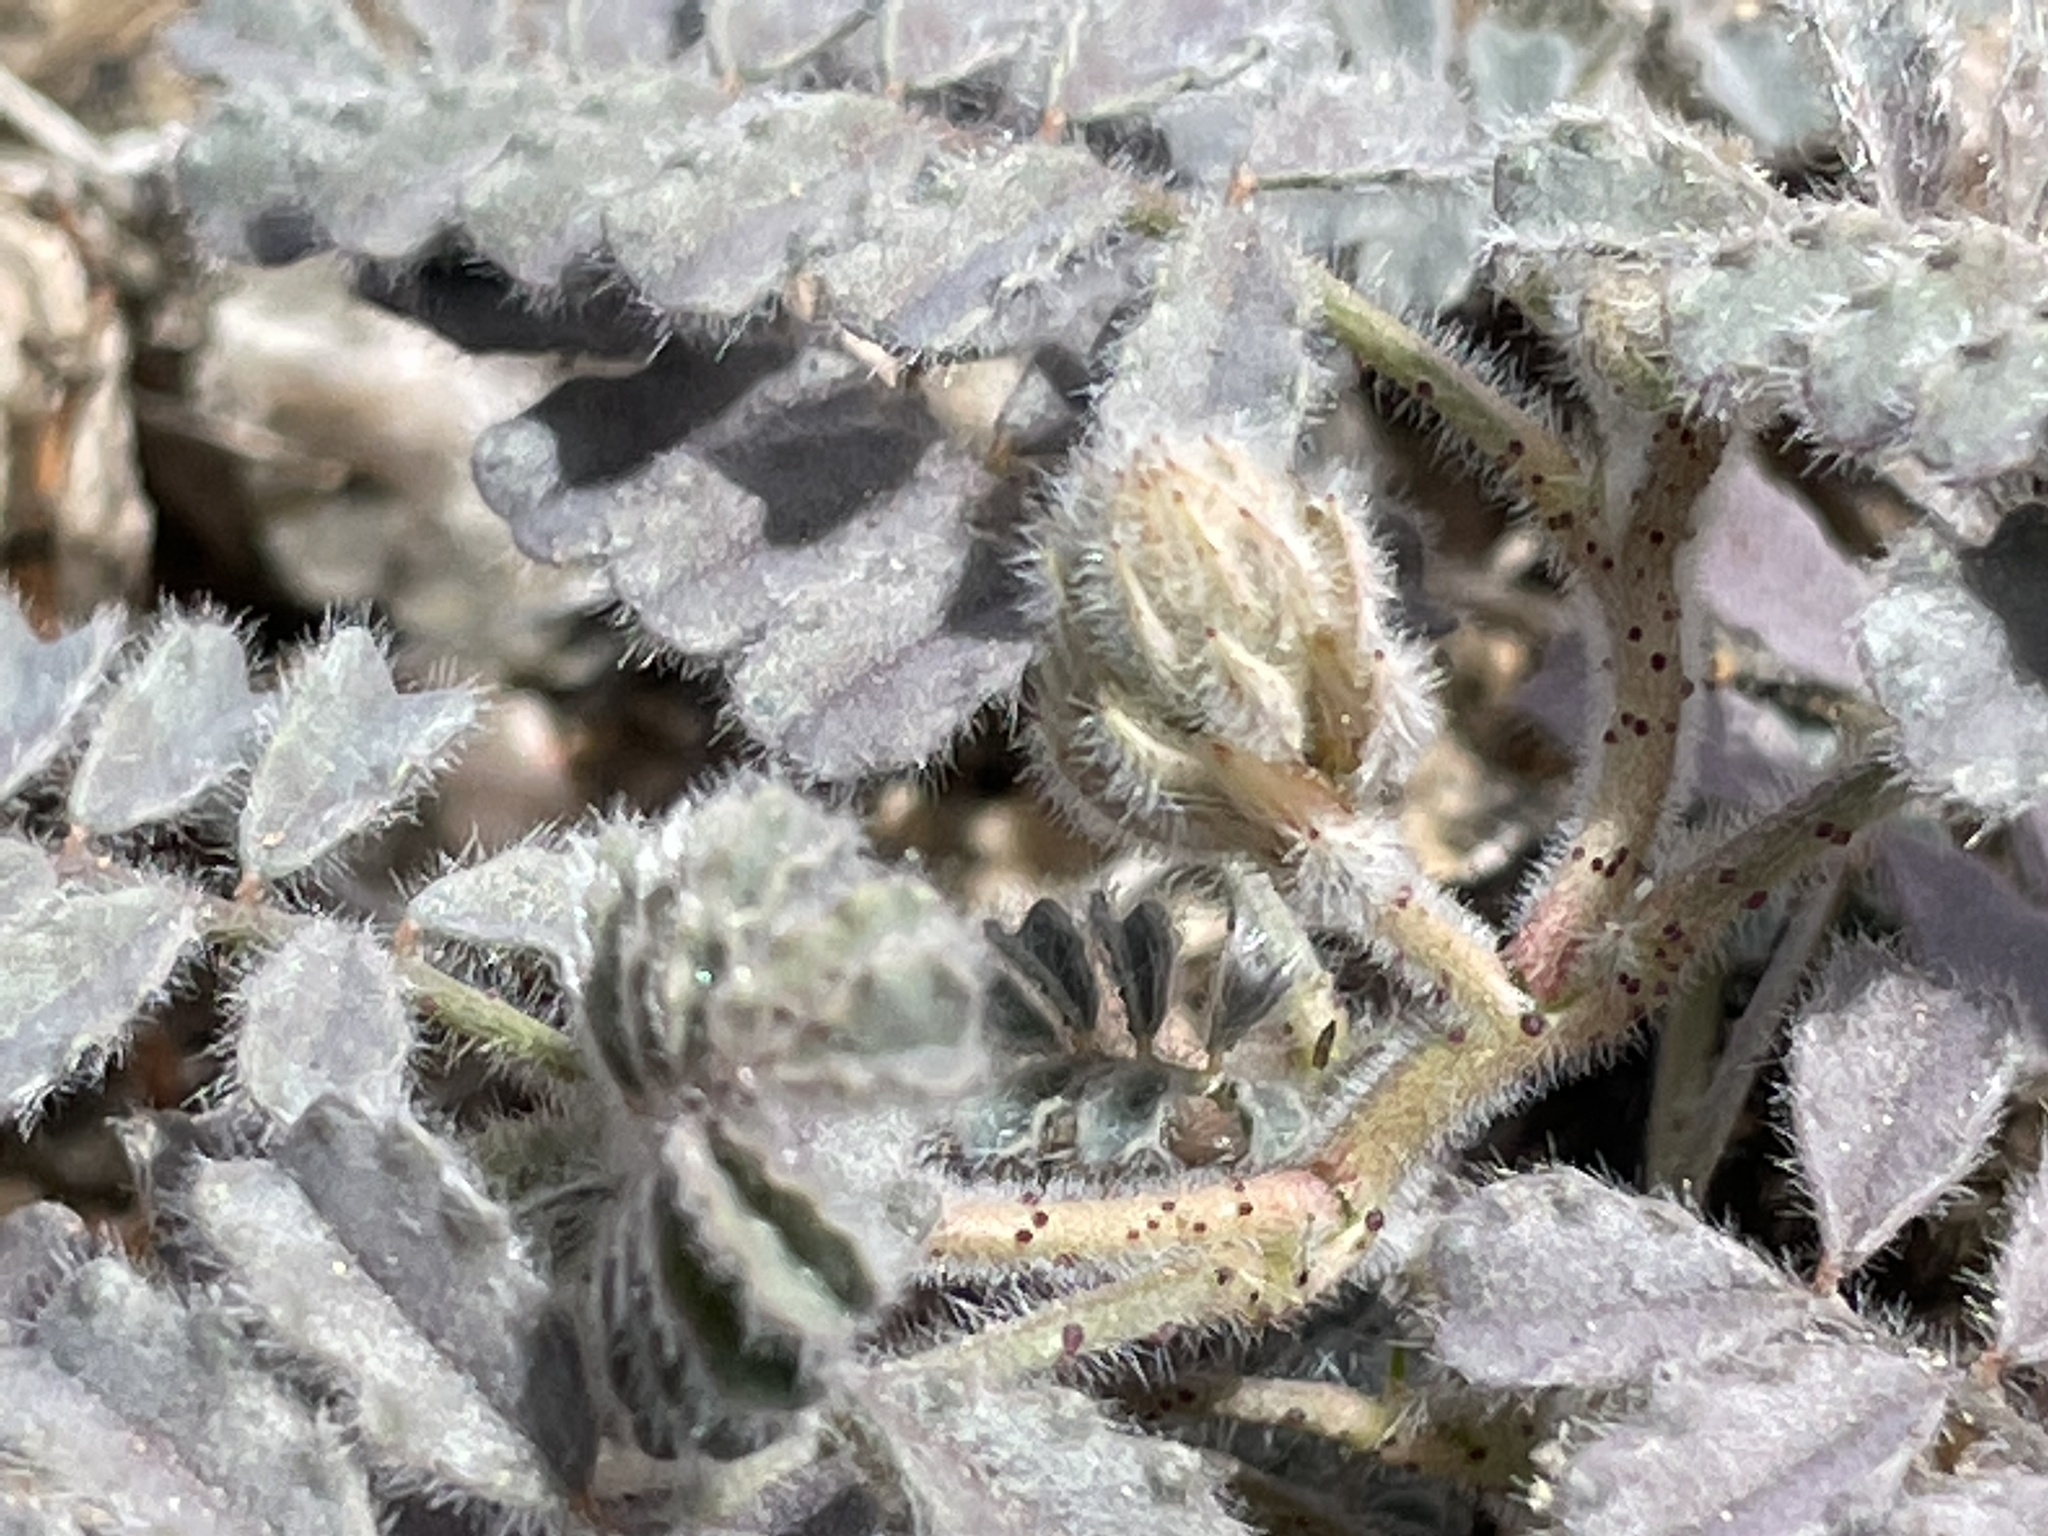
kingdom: Plantae
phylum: Tracheophyta
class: Magnoliopsida
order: Fabales
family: Fabaceae
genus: Dalea
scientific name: Dalea mollissima
